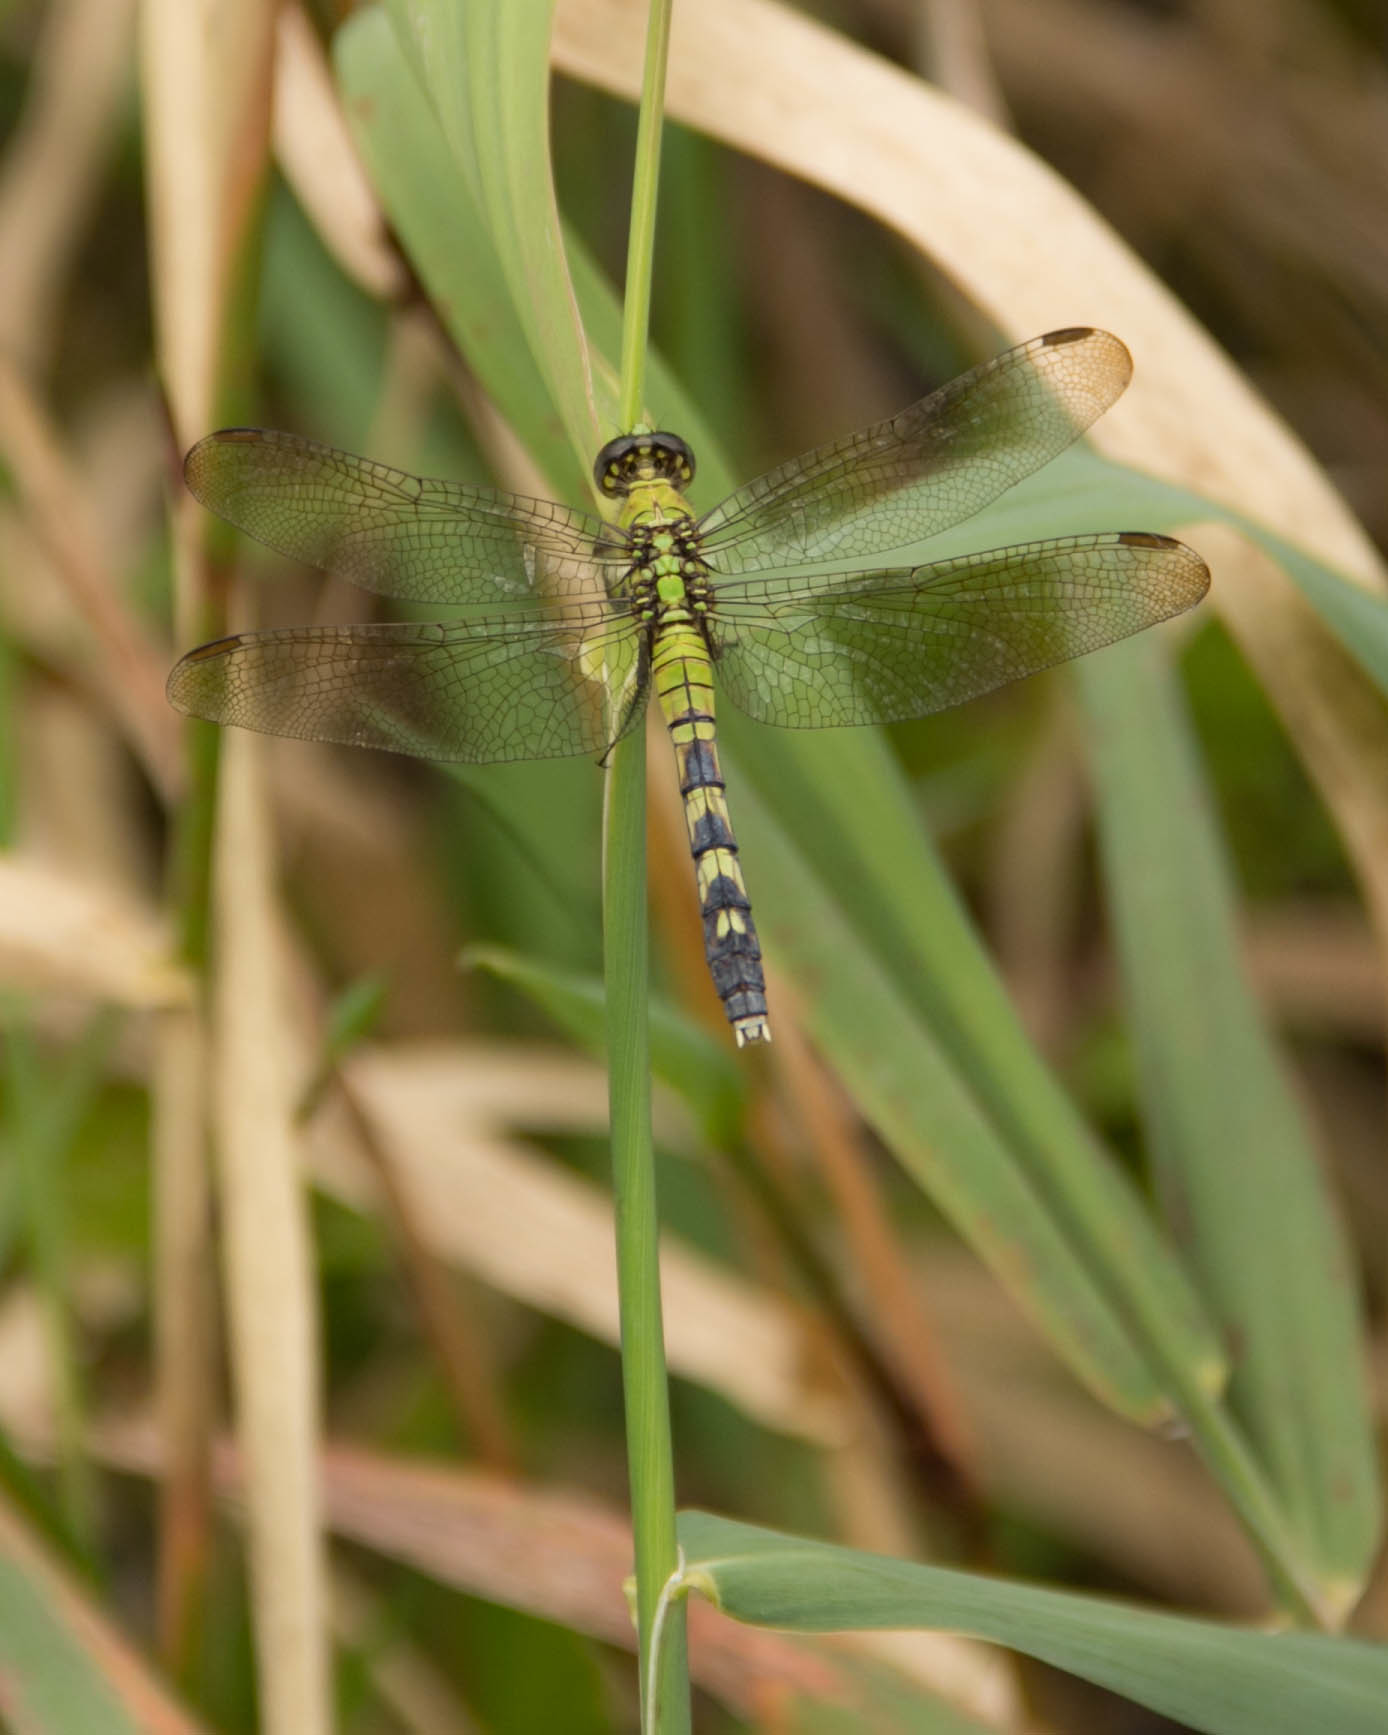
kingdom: Animalia
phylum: Arthropoda
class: Insecta
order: Odonata
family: Libellulidae
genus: Erythemis
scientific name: Erythemis simplicicollis
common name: Eastern pondhawk
